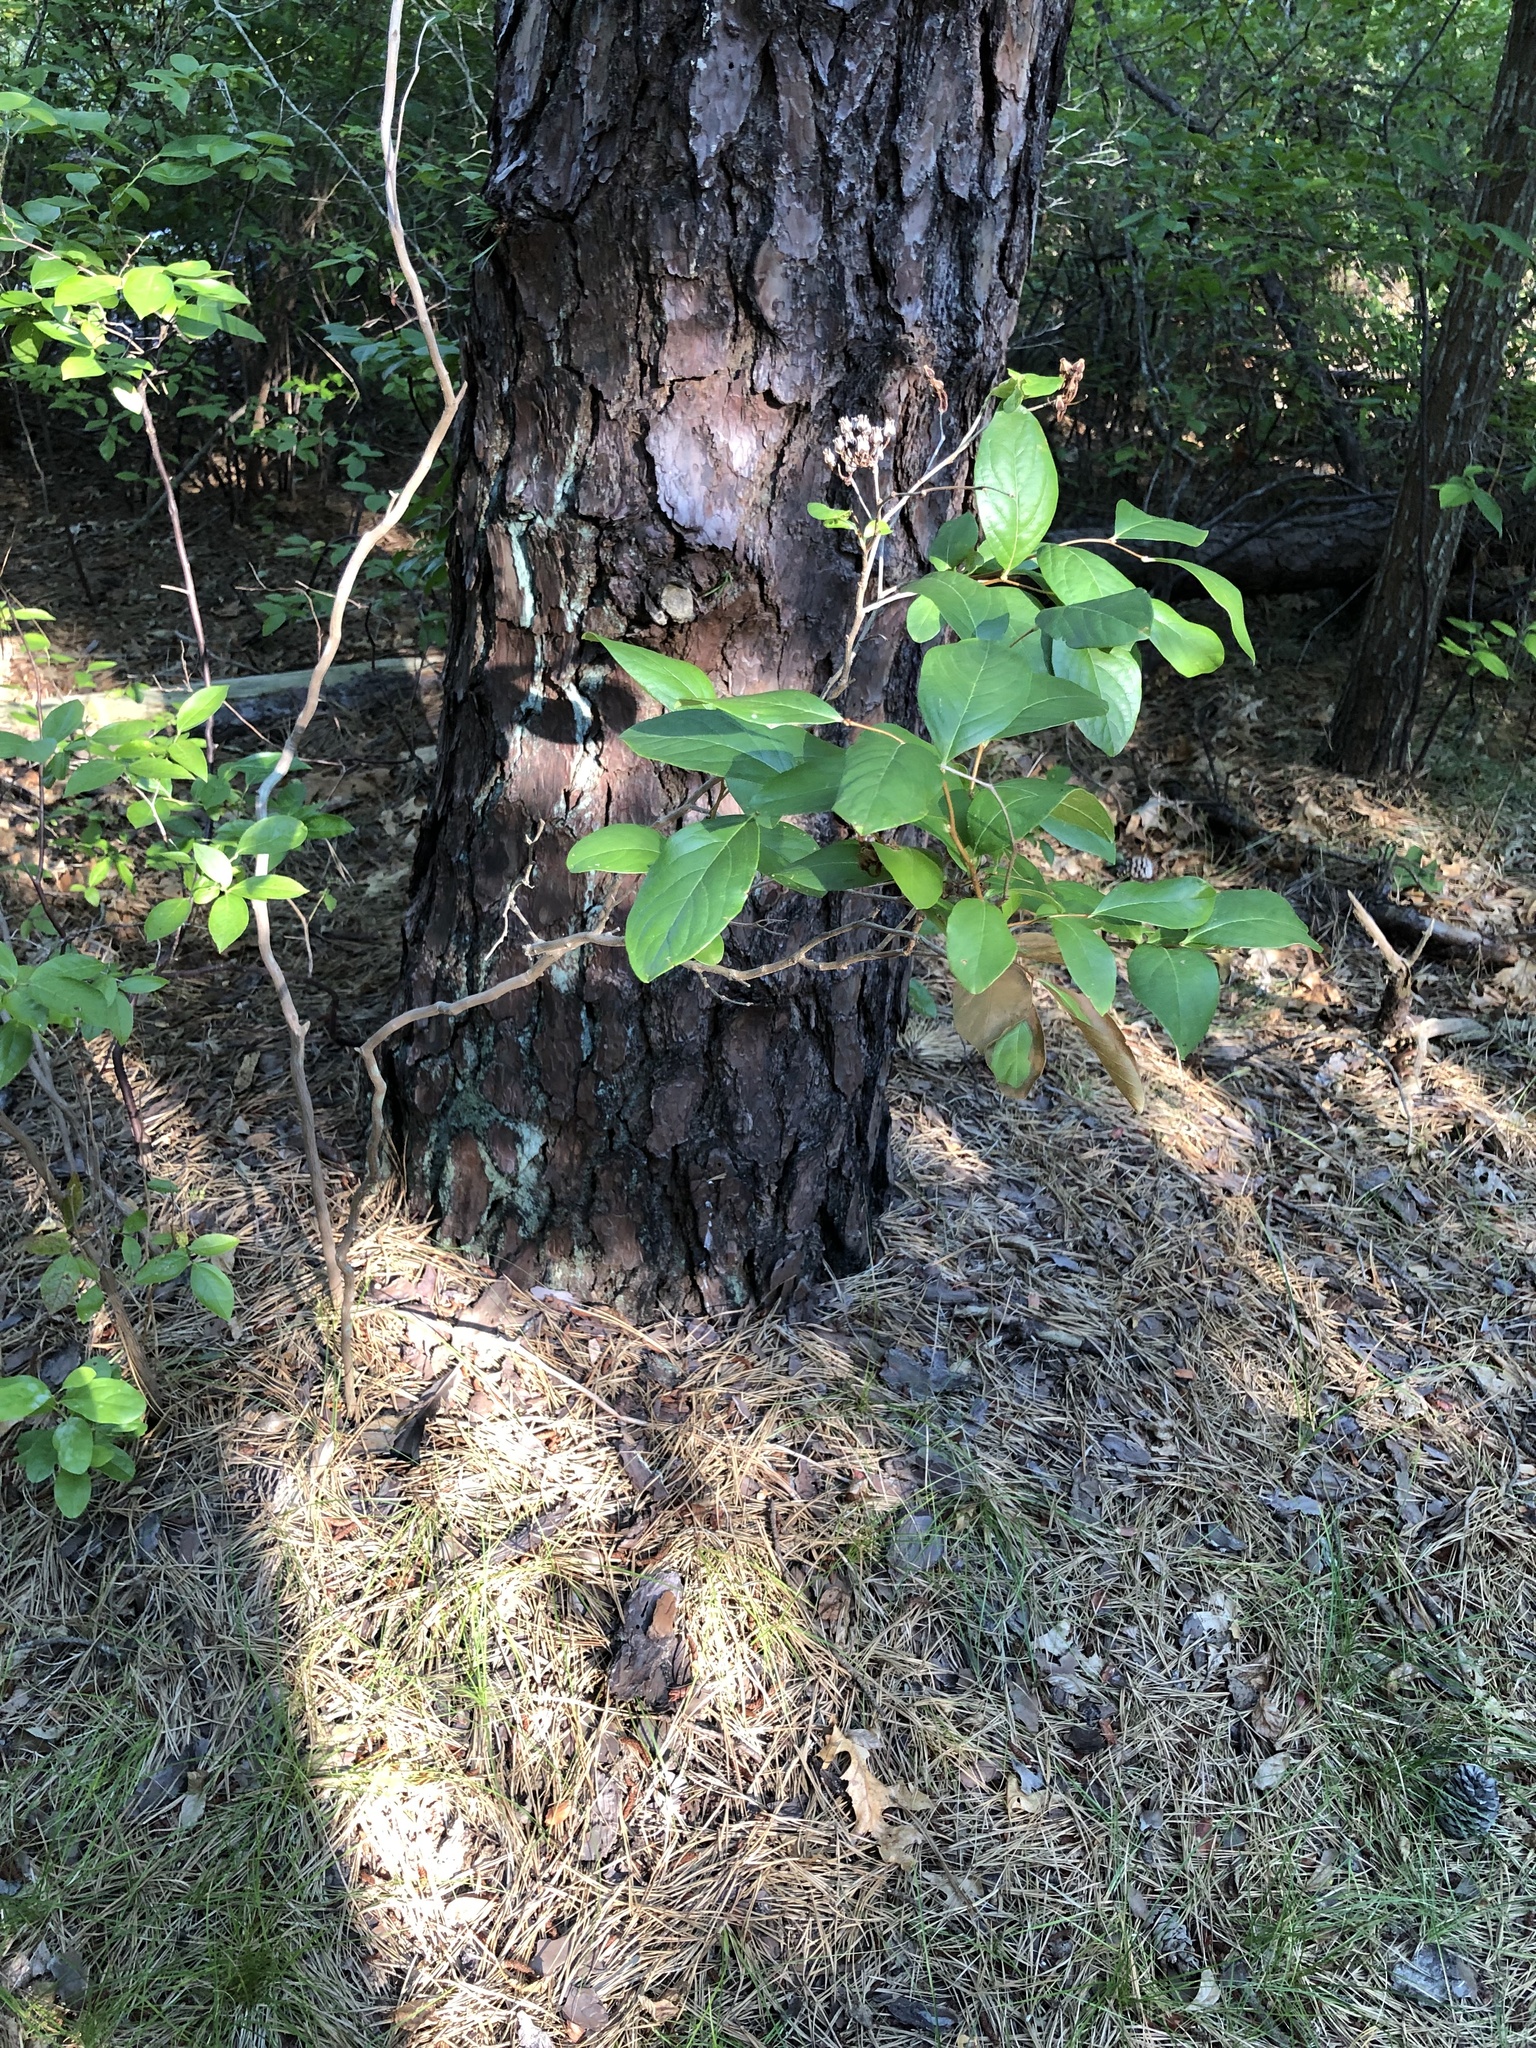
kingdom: Plantae
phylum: Tracheophyta
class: Magnoliopsida
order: Ericales
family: Ericaceae
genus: Lyonia
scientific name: Lyonia mariana
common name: Staggerbush
